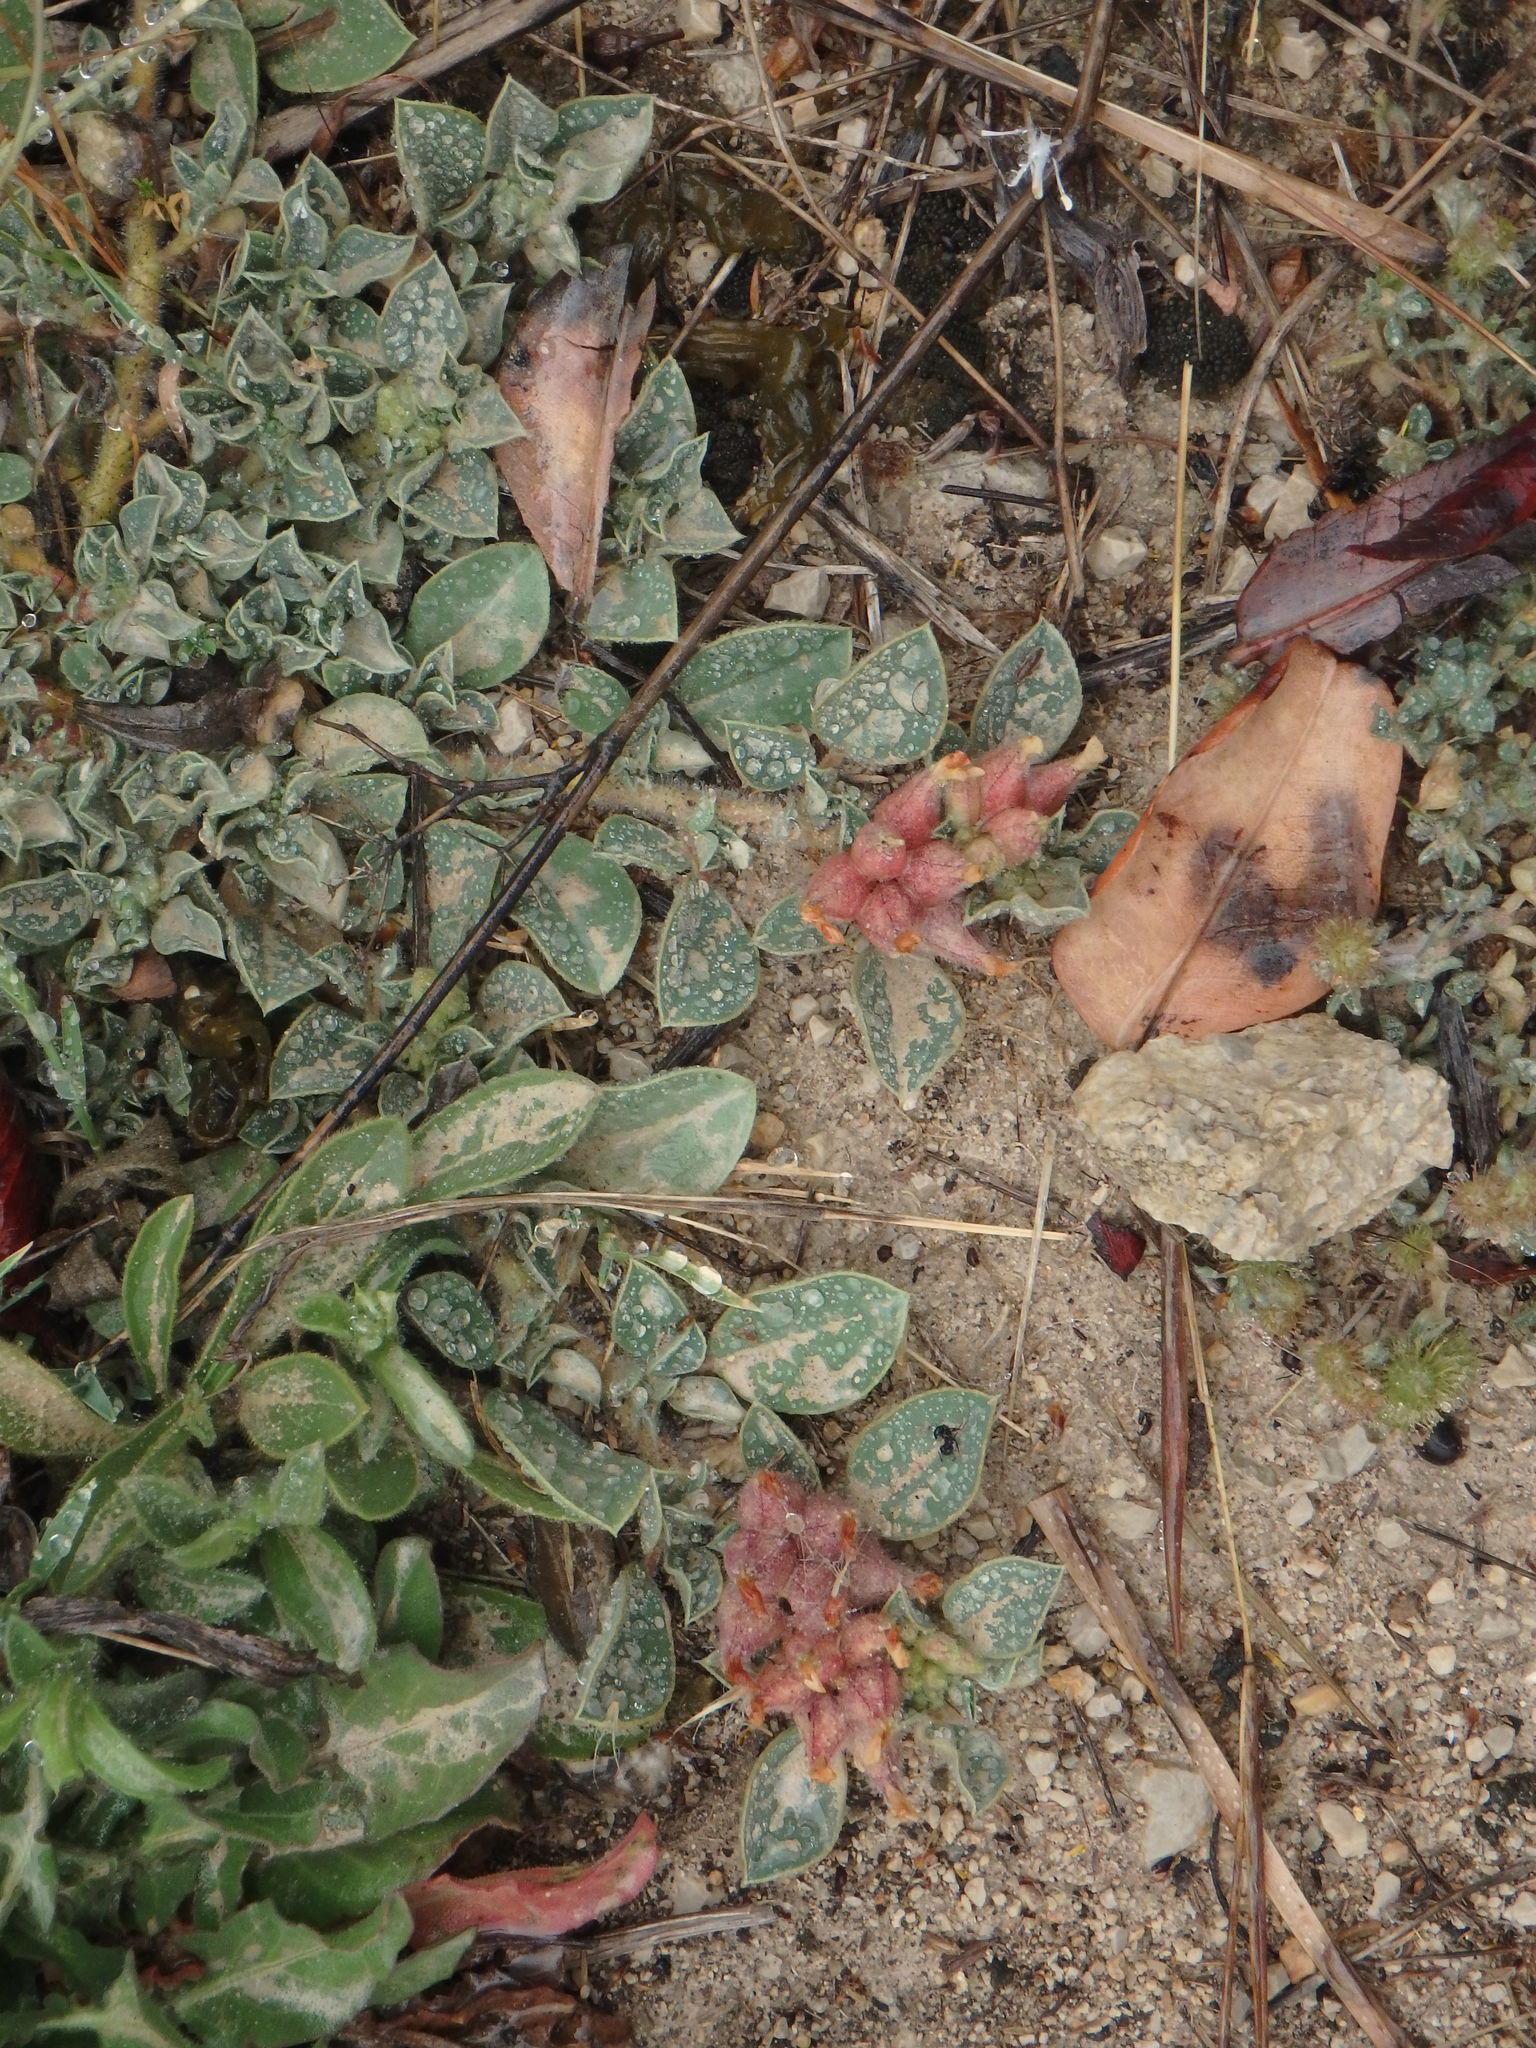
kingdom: Plantae
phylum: Tracheophyta
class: Magnoliopsida
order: Fabales
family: Fabaceae
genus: Tripodion
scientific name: Tripodion tetraphyllum
